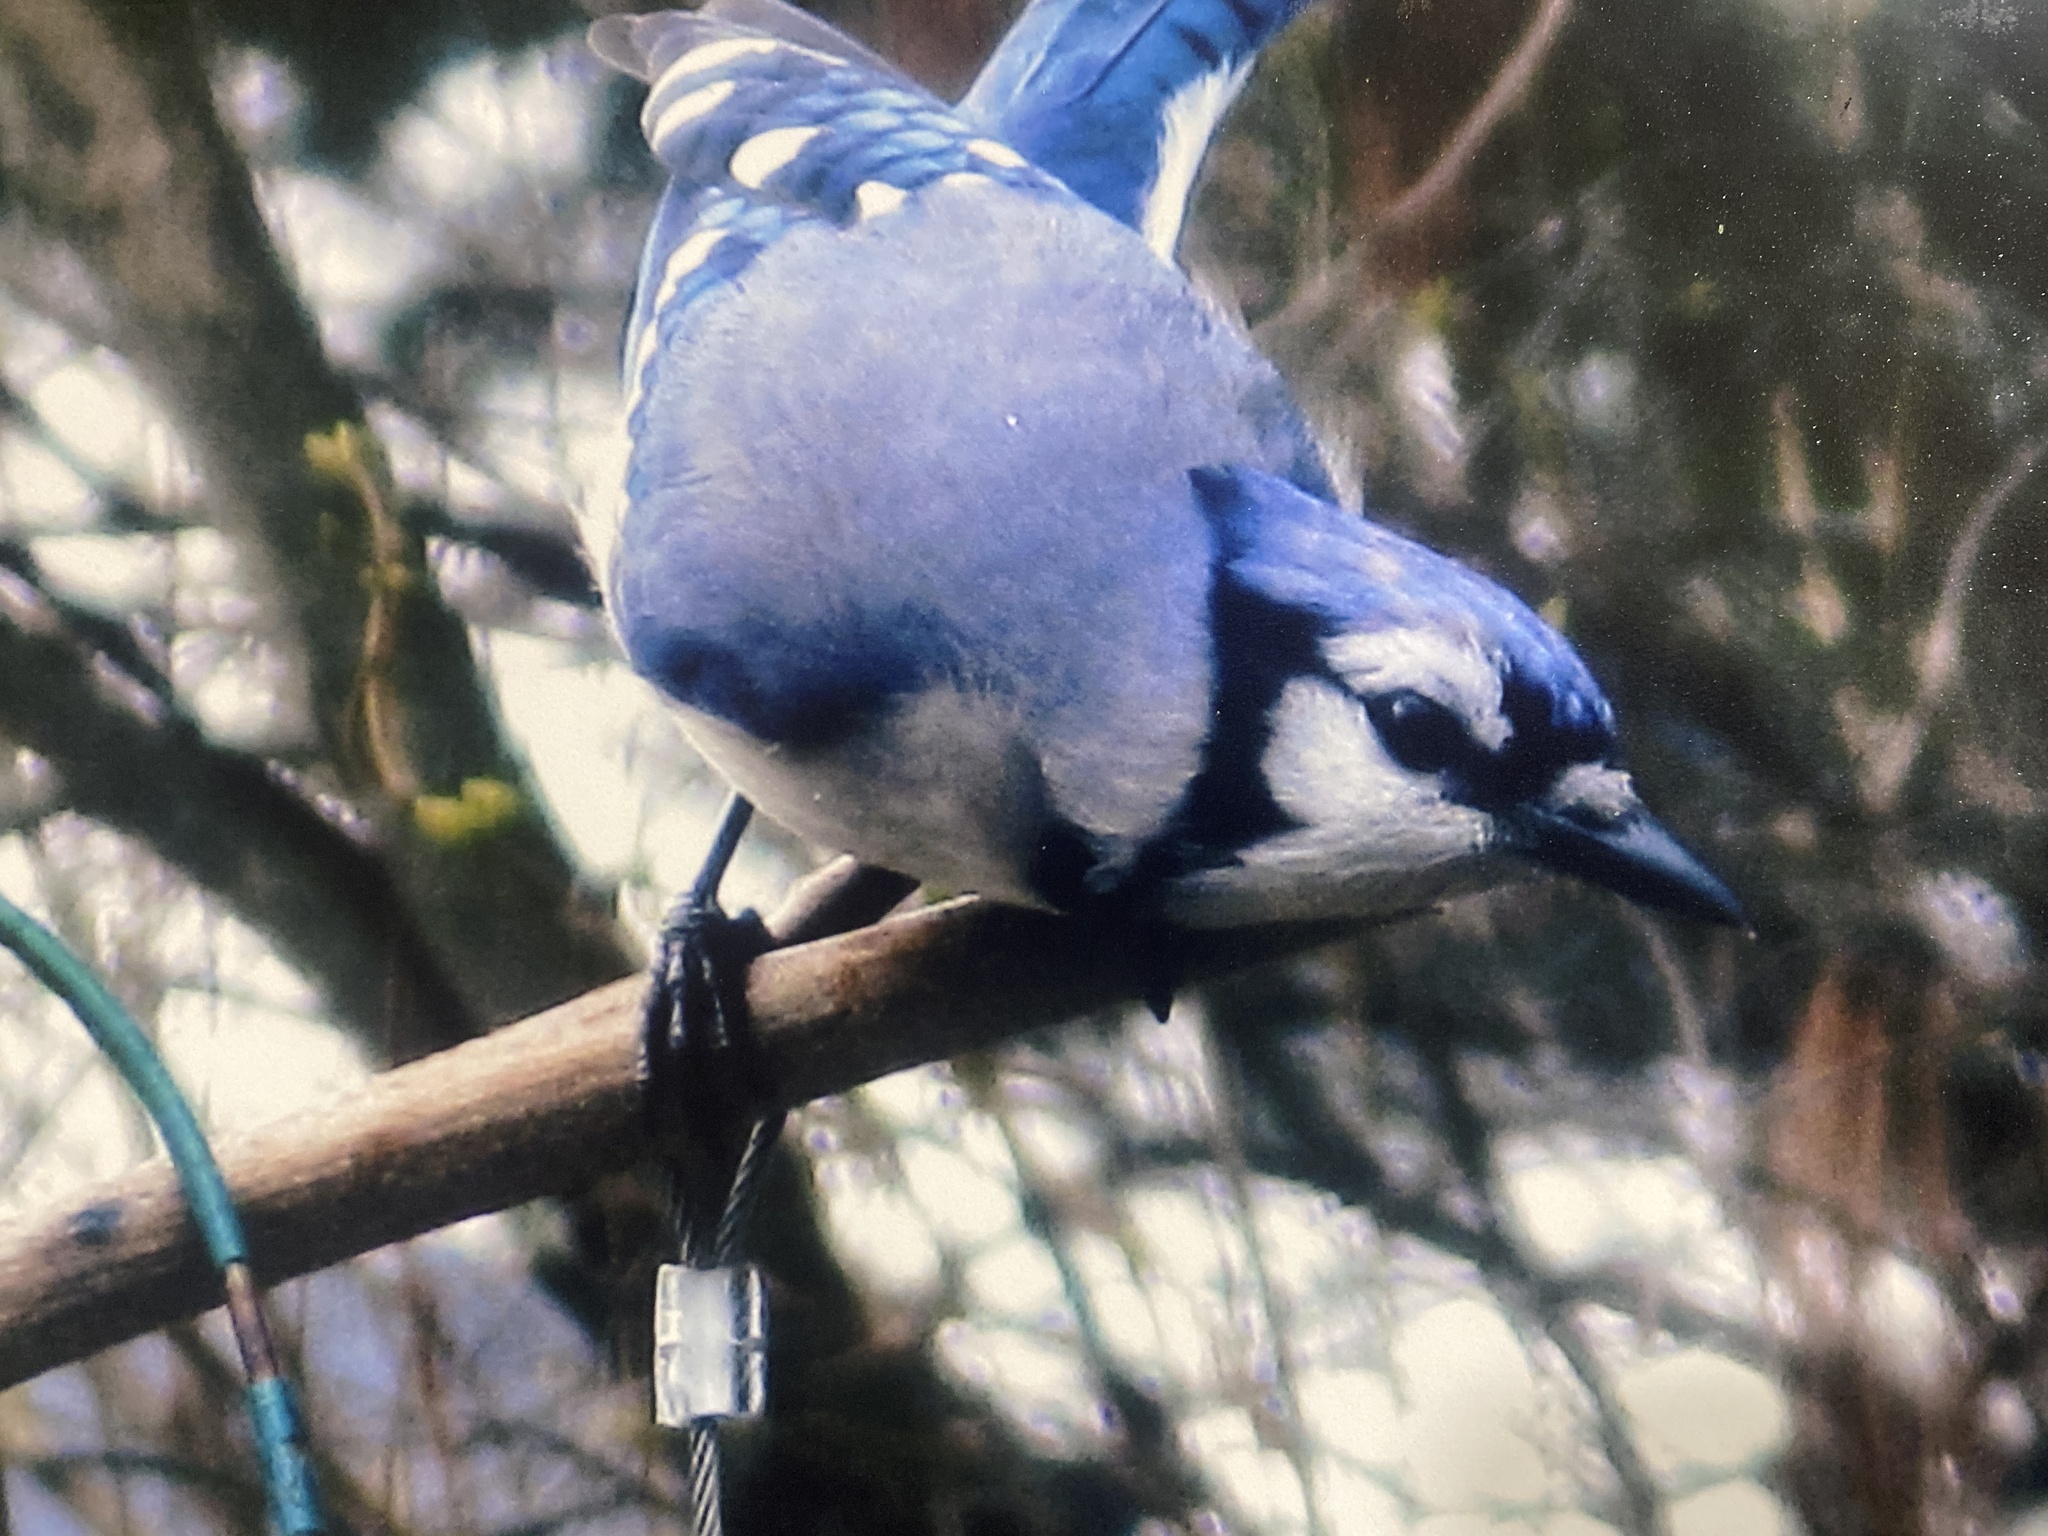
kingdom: Animalia
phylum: Chordata
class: Aves
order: Passeriformes
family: Corvidae
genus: Cyanocitta
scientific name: Cyanocitta cristata
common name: Blue jay
